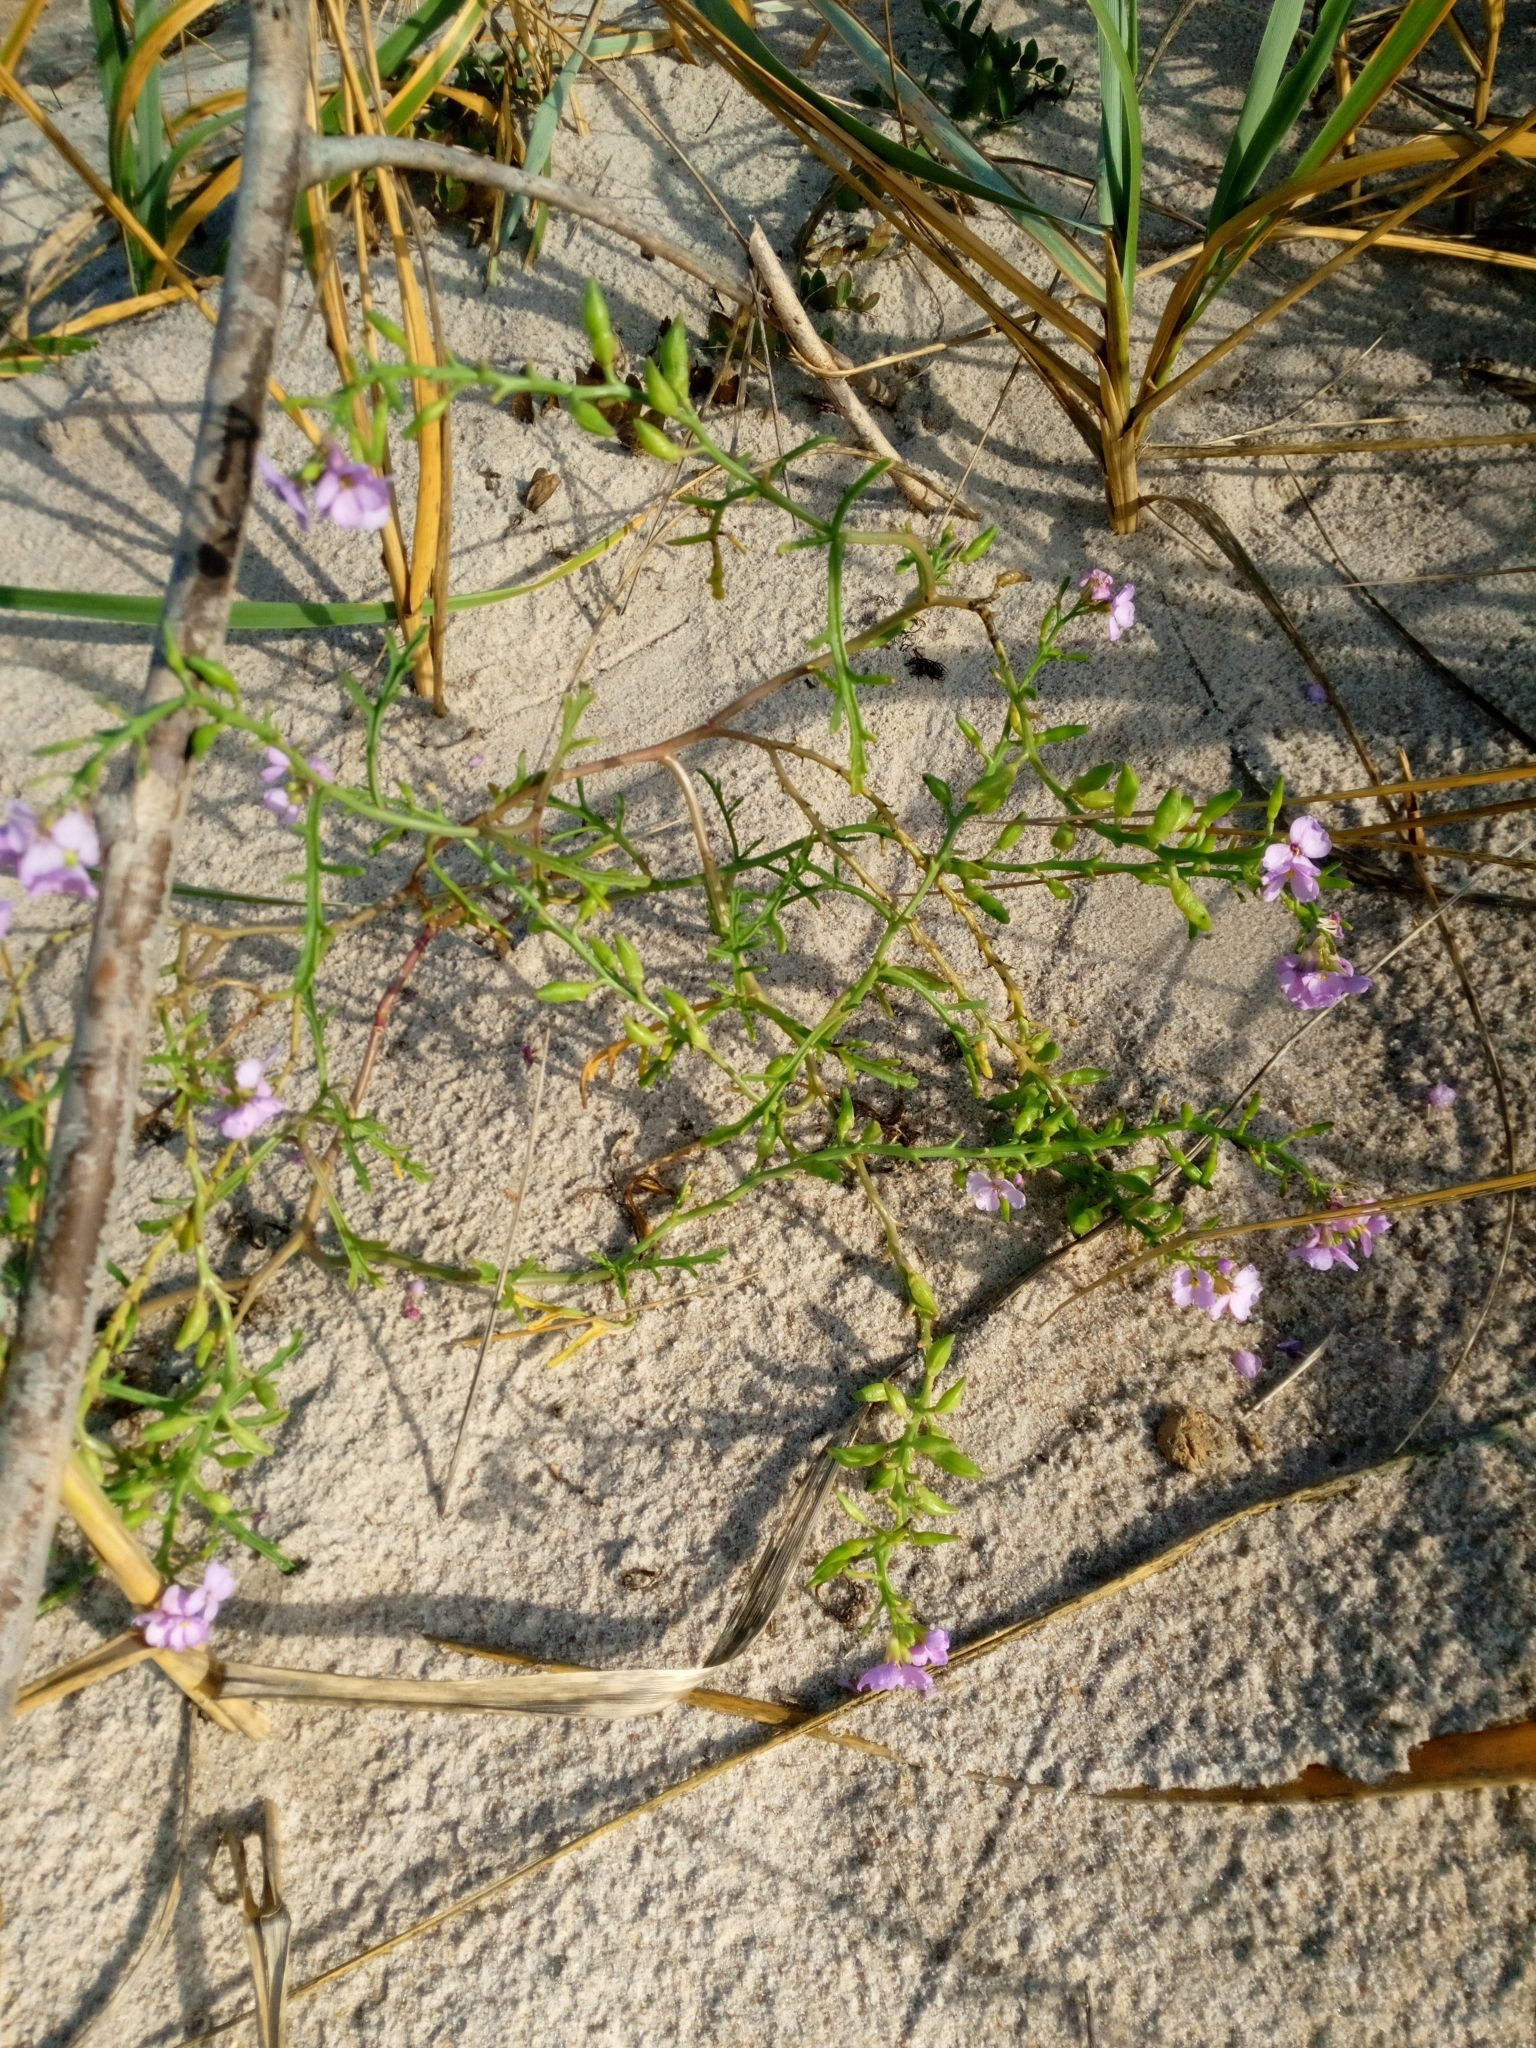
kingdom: Plantae
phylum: Tracheophyta
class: Magnoliopsida
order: Brassicales
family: Brassicaceae
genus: Cakile
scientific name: Cakile maritima
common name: Sea rocket
